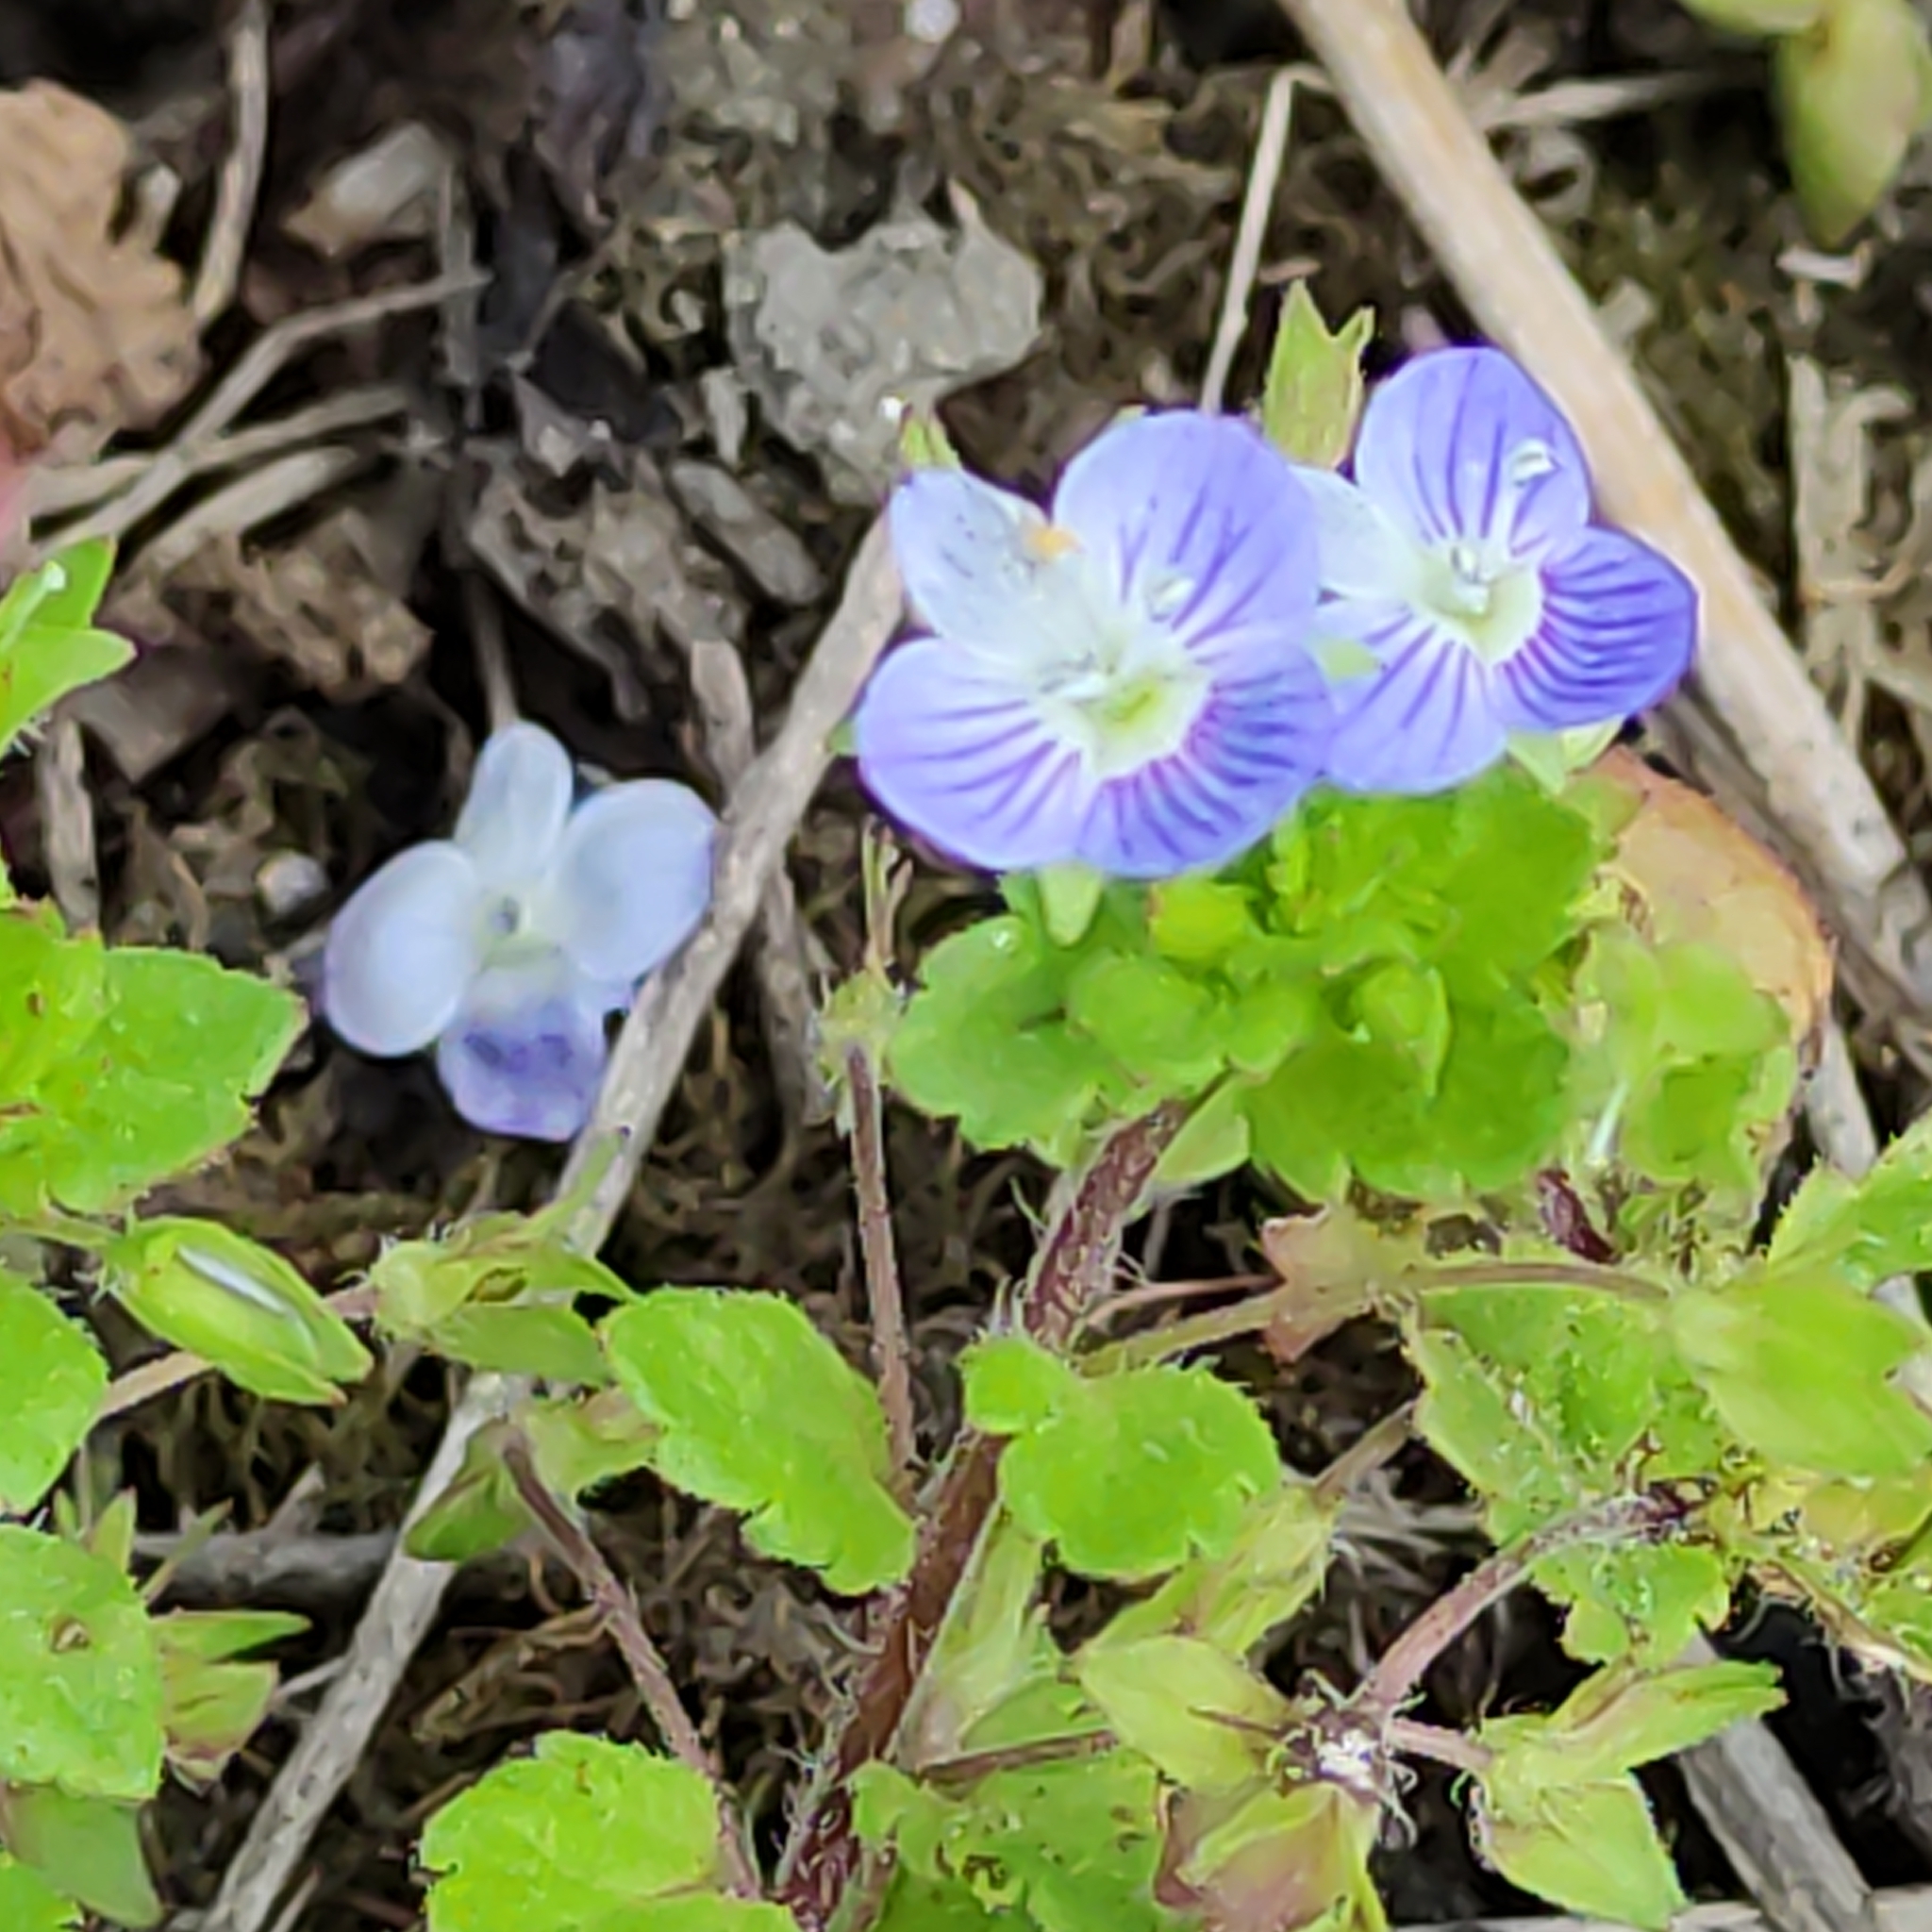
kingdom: Plantae
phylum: Tracheophyta
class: Magnoliopsida
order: Lamiales
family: Plantaginaceae
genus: Veronica
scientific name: Veronica persica
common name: Common field-speedwell
